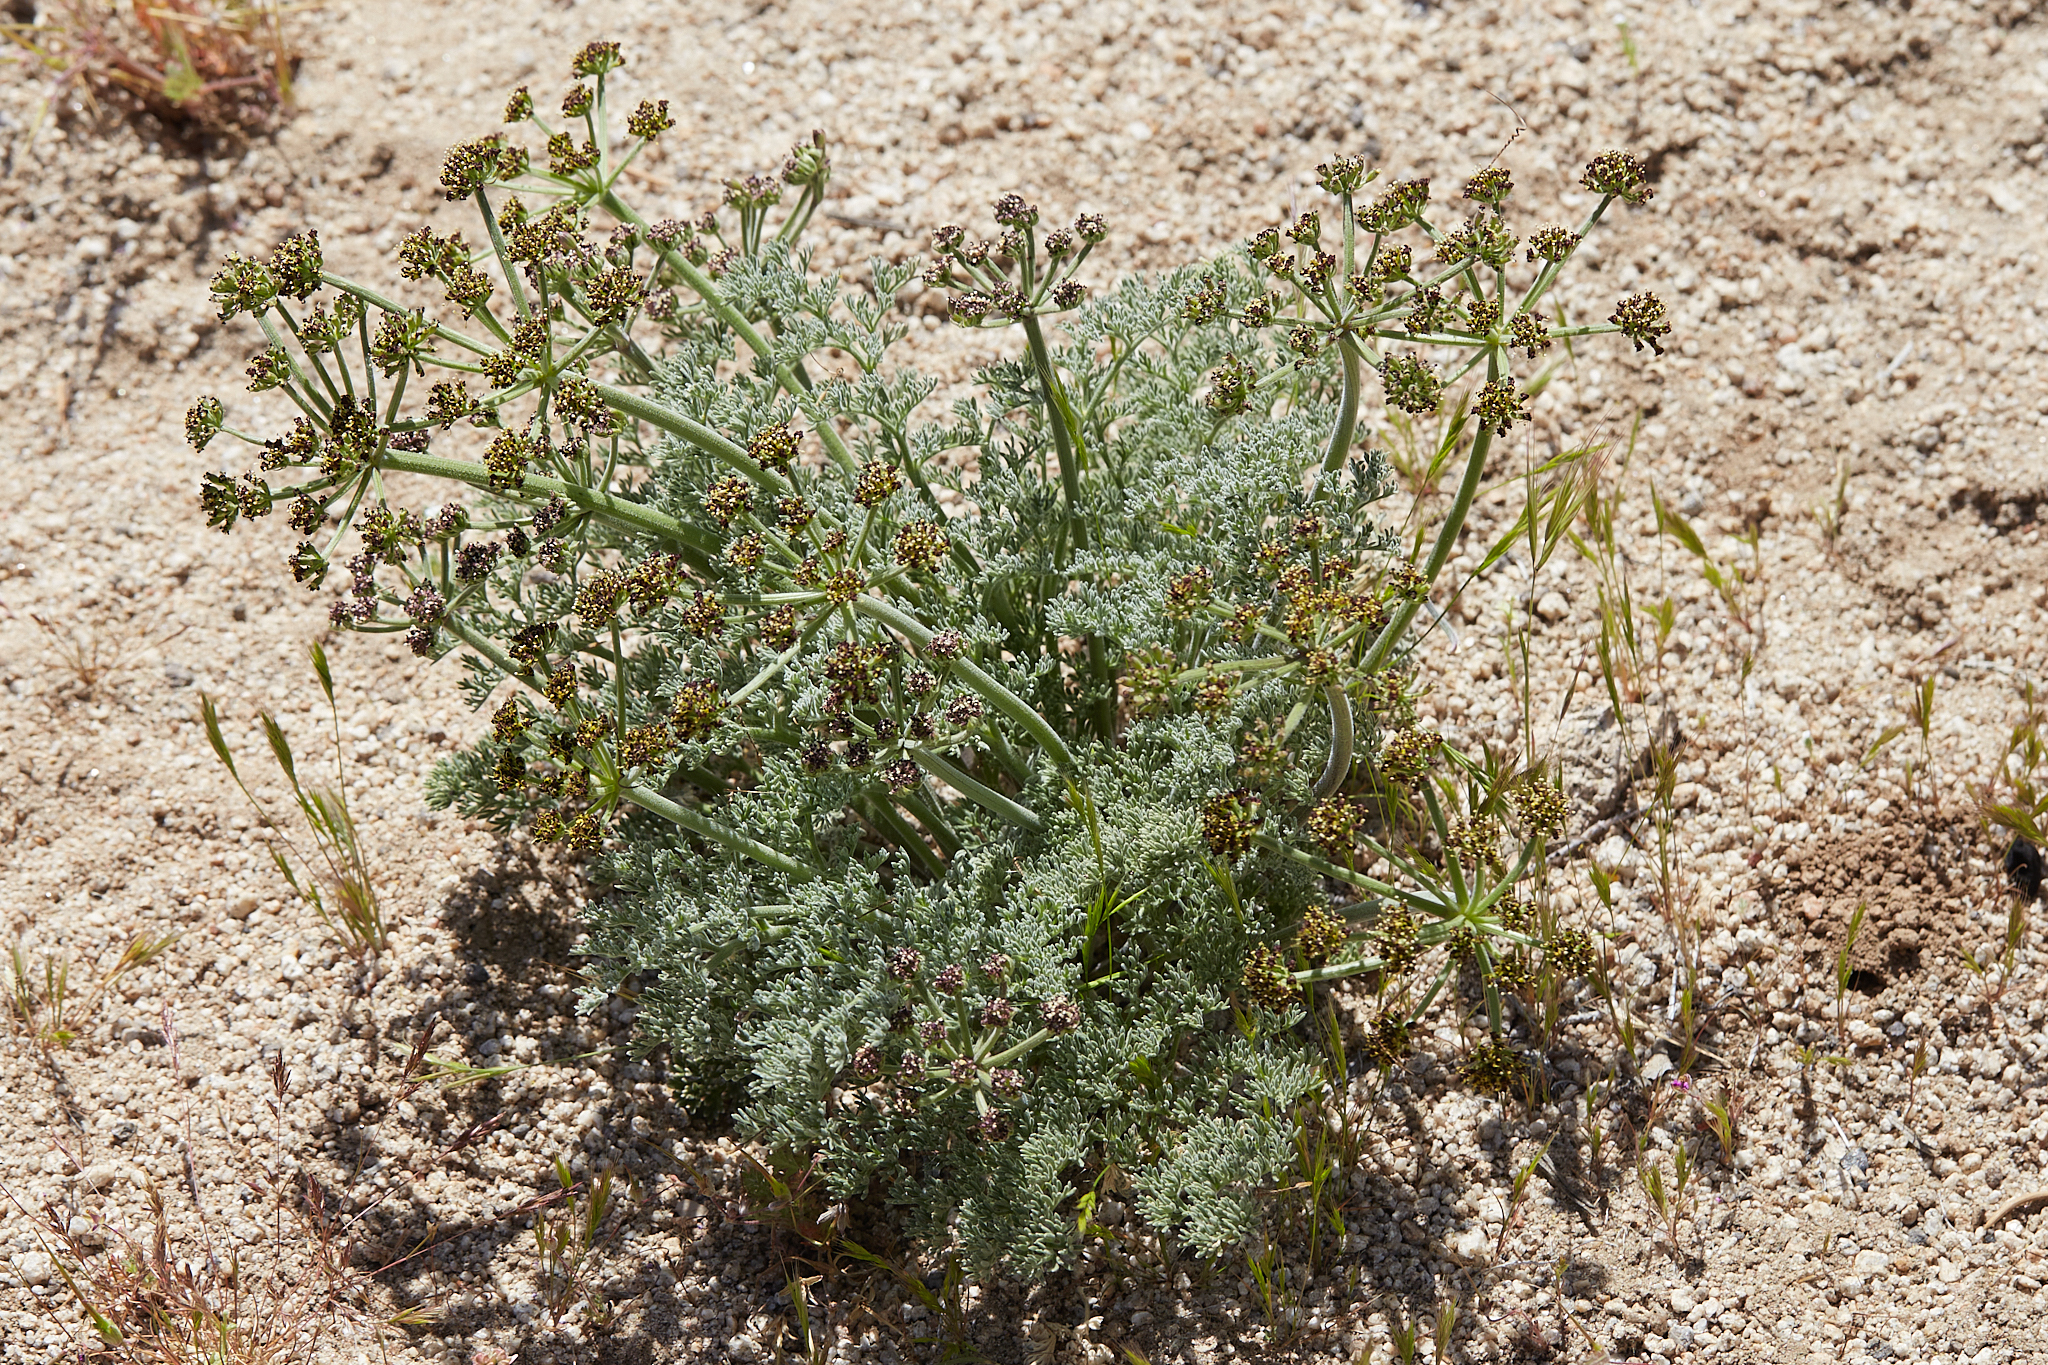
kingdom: Plantae
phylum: Tracheophyta
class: Magnoliopsida
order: Apiales
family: Apiaceae
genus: Lomatium
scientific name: Lomatium mohavense
